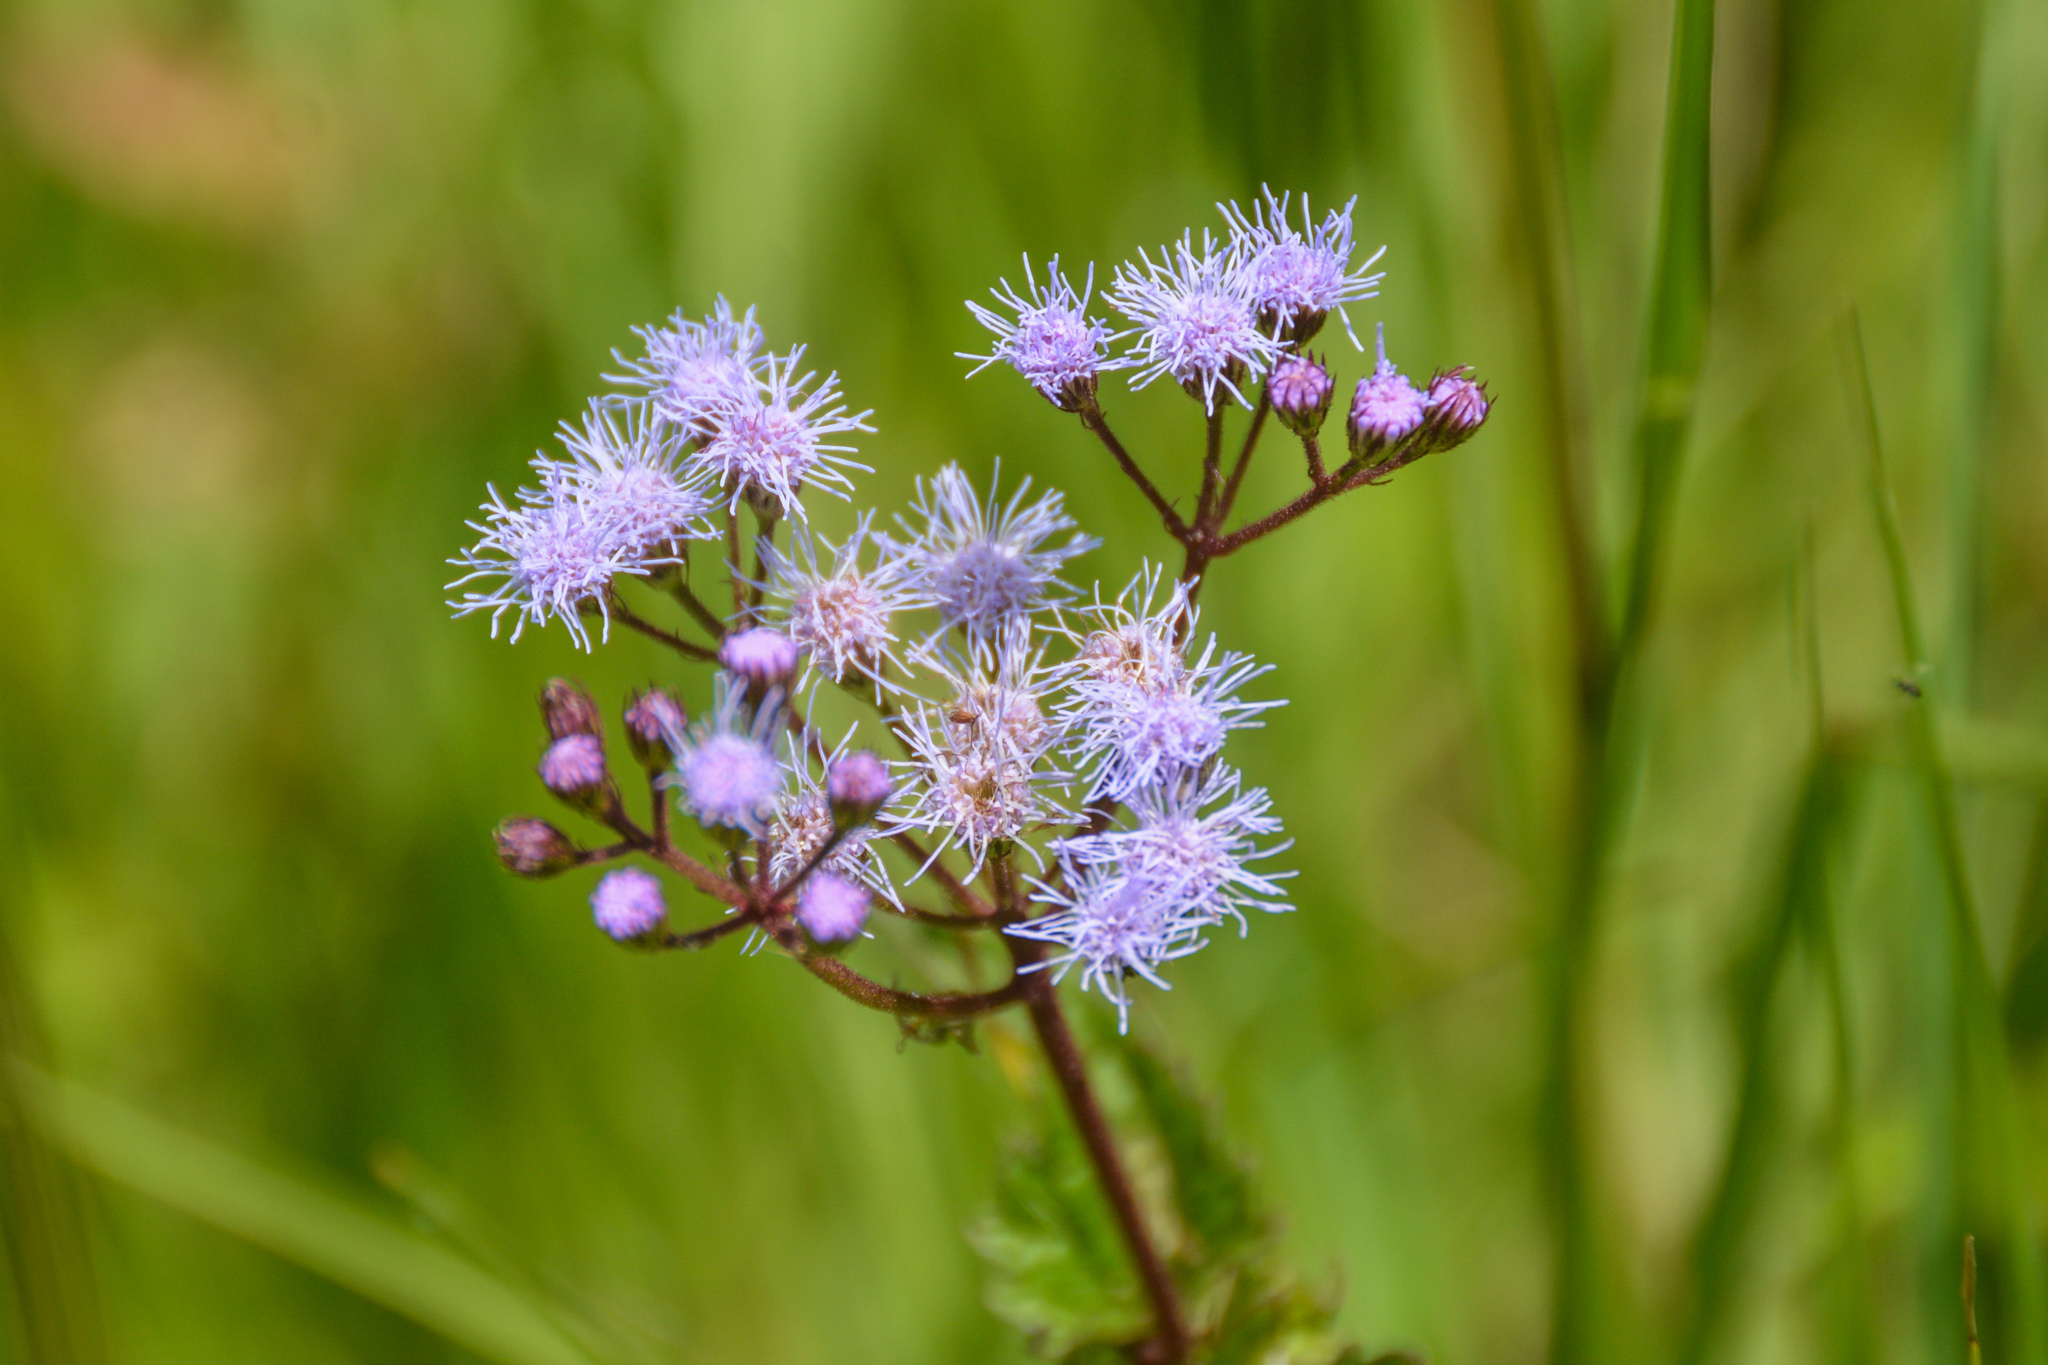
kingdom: Plantae
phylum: Tracheophyta
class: Magnoliopsida
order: Asterales
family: Asteraceae
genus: Conoclinium
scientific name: Conoclinium coelestinum
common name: Blue mistflower
